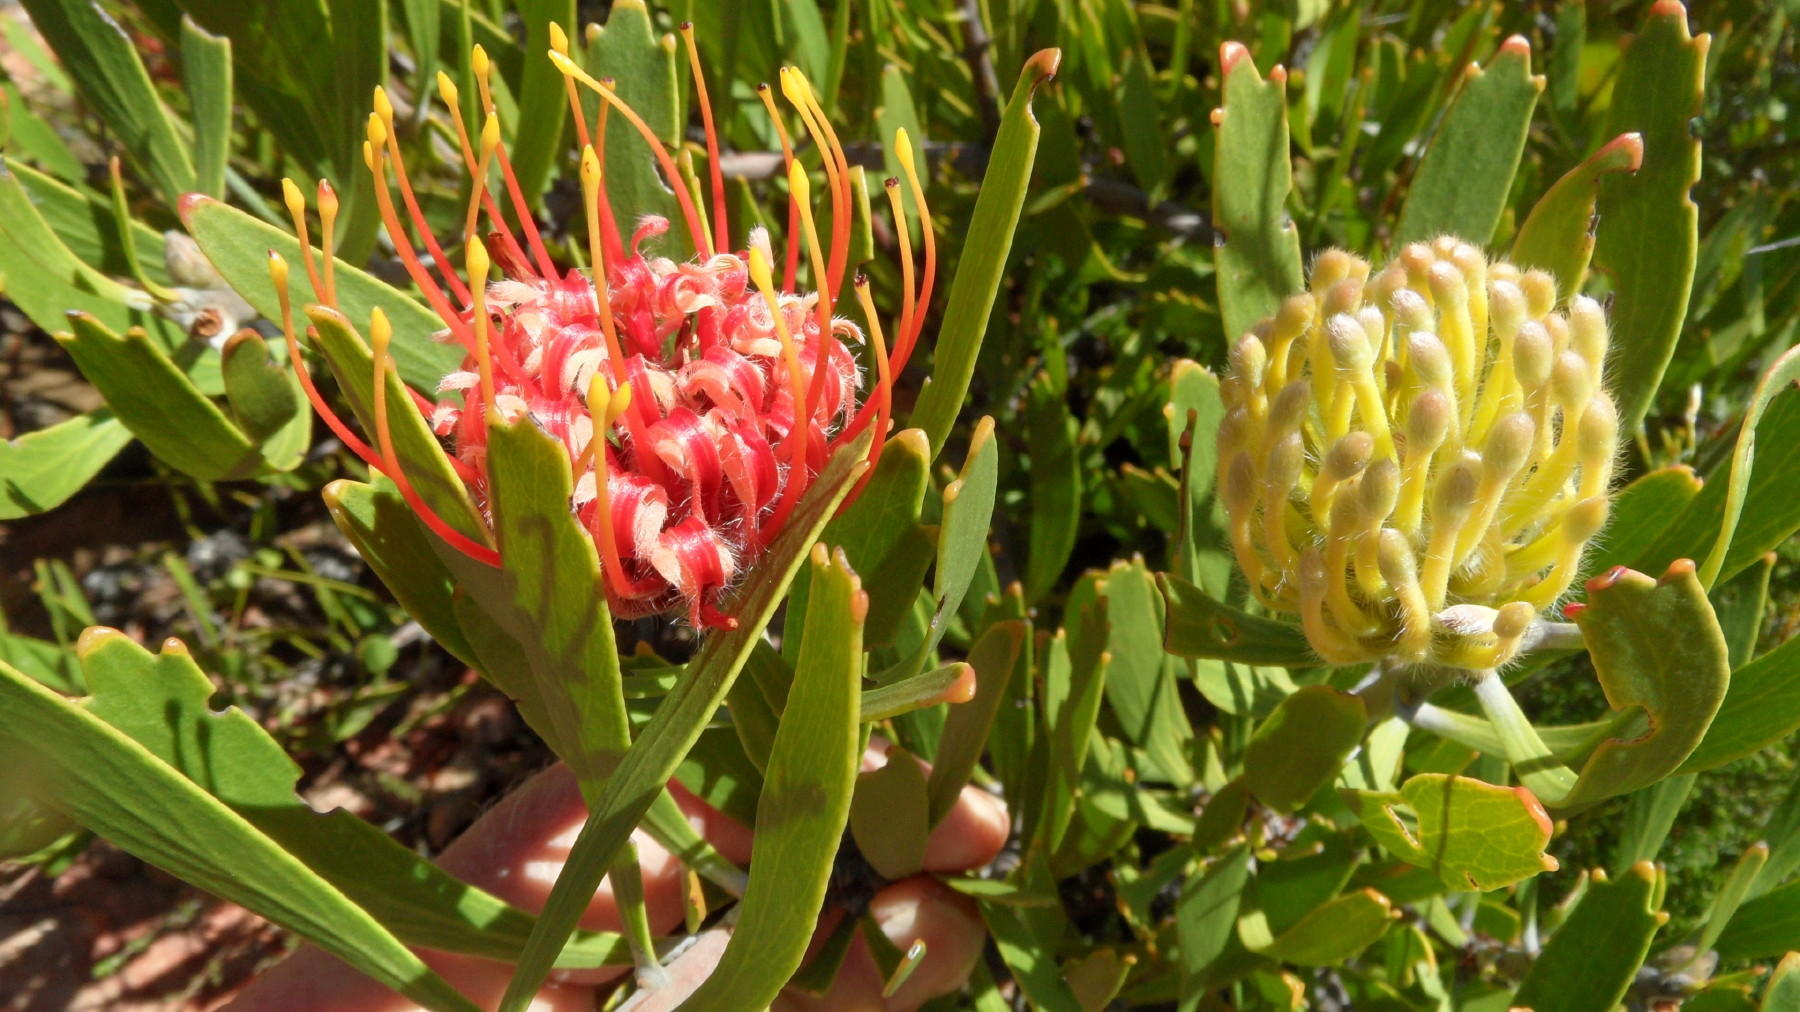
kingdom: Plantae
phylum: Tracheophyta
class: Magnoliopsida
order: Proteales
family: Proteaceae
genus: Leucospermum
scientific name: Leucospermum cuneiforme
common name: Common pincushion
